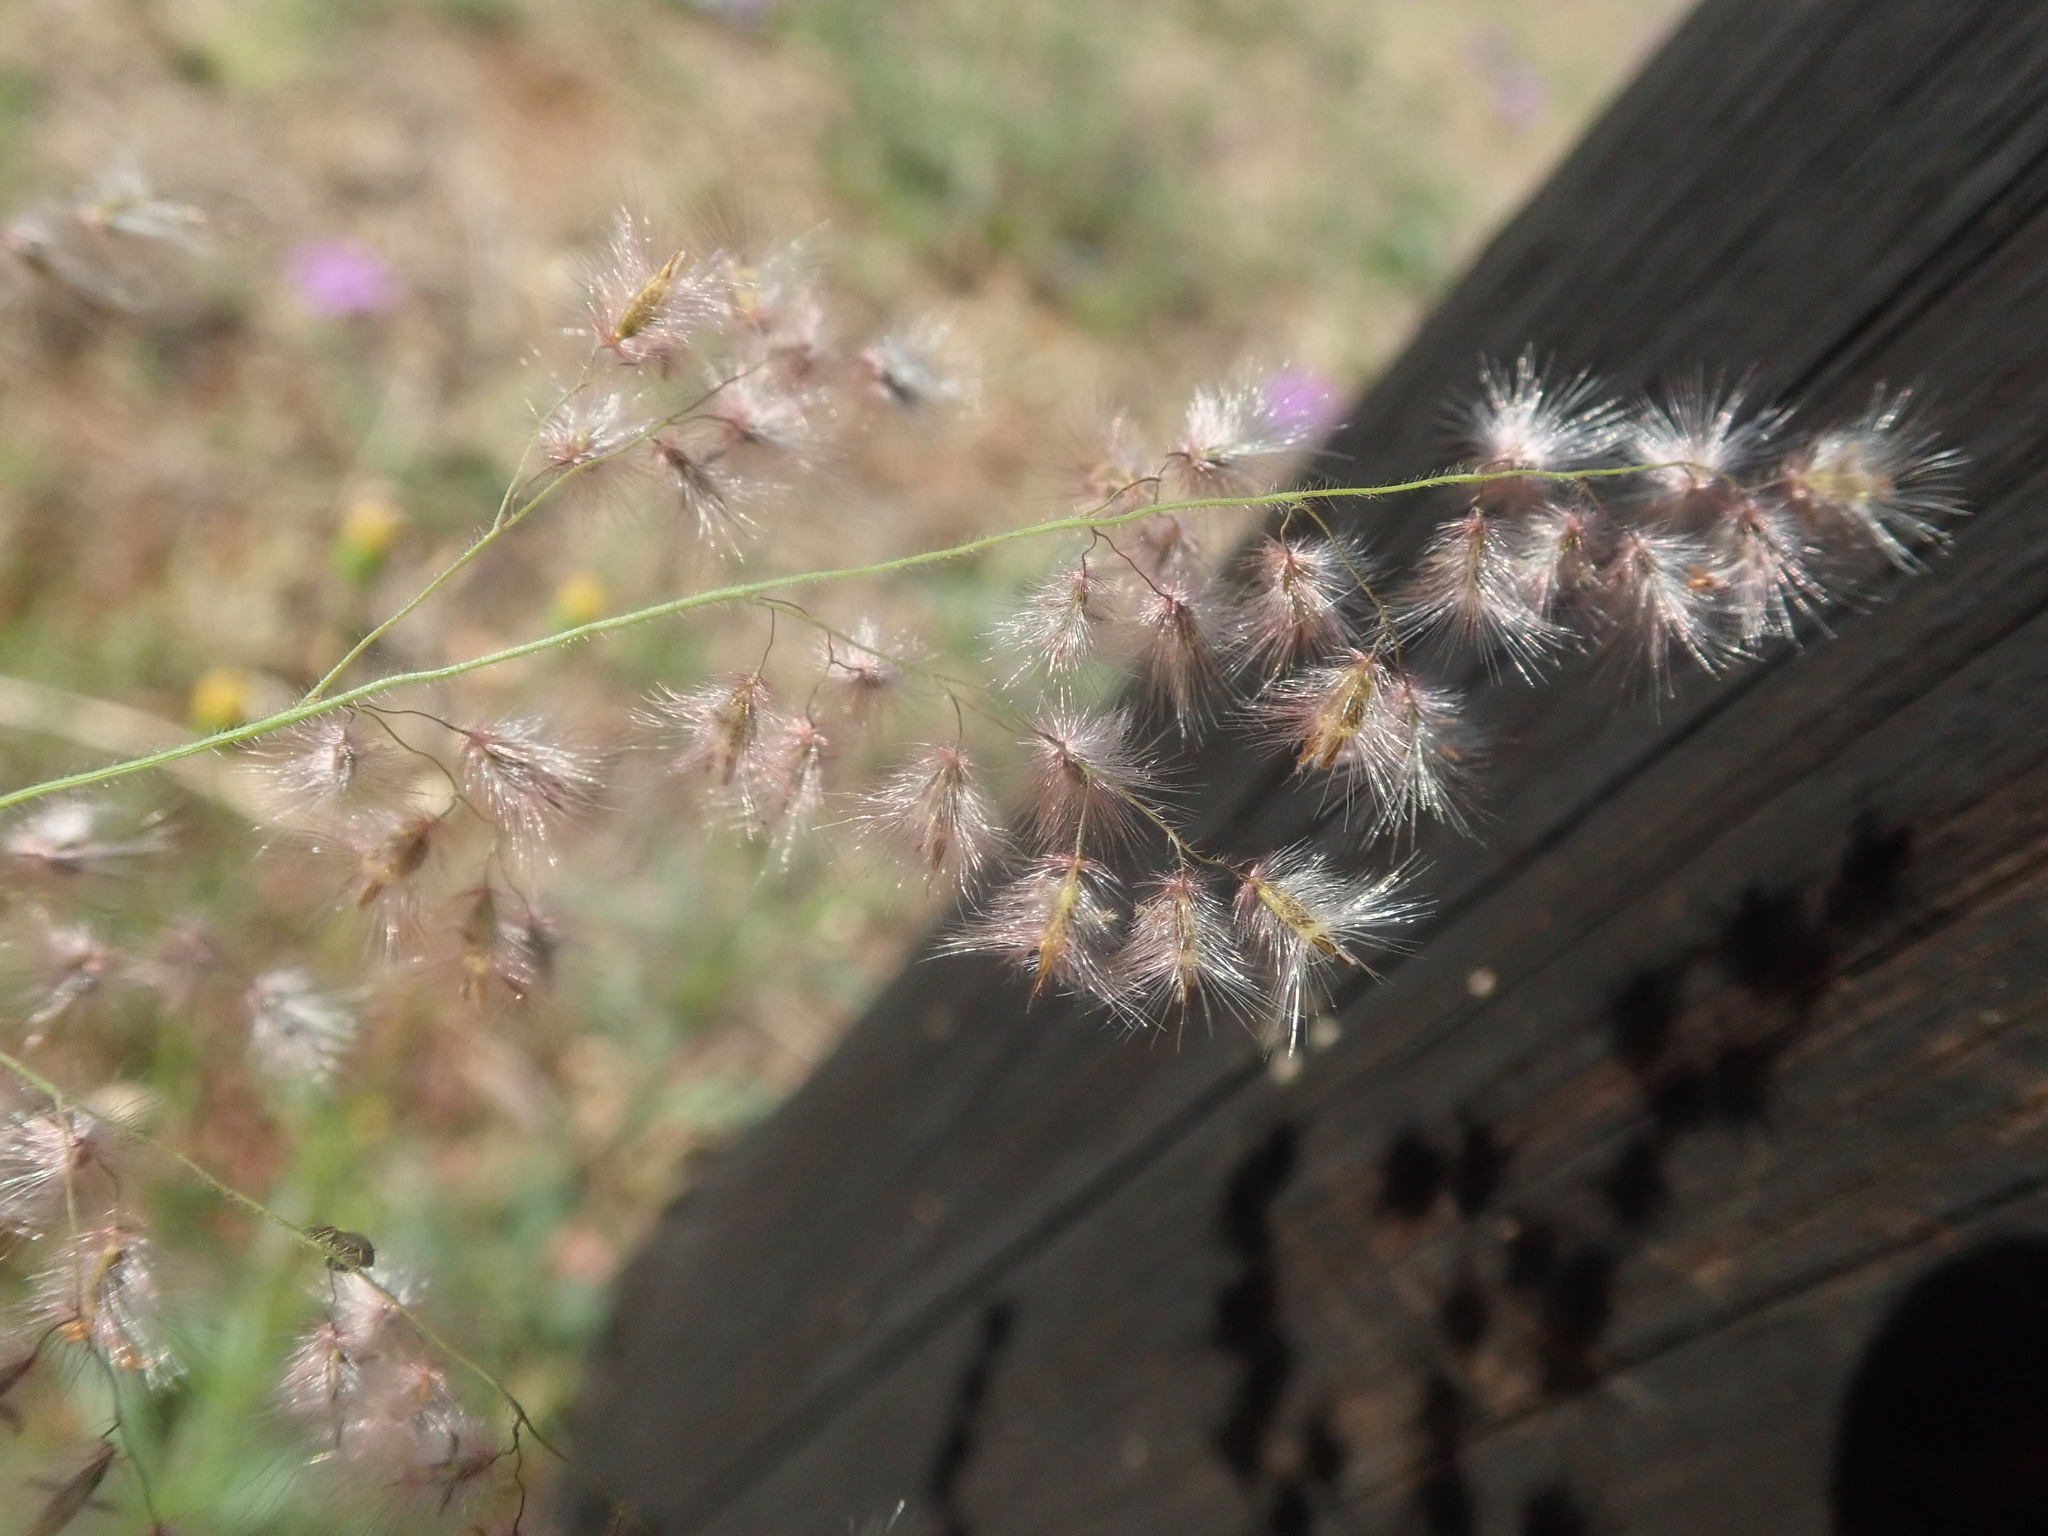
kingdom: Plantae
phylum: Tracheophyta
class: Liliopsida
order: Poales
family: Poaceae
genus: Melinis
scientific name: Melinis repens
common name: Rose natal grass
